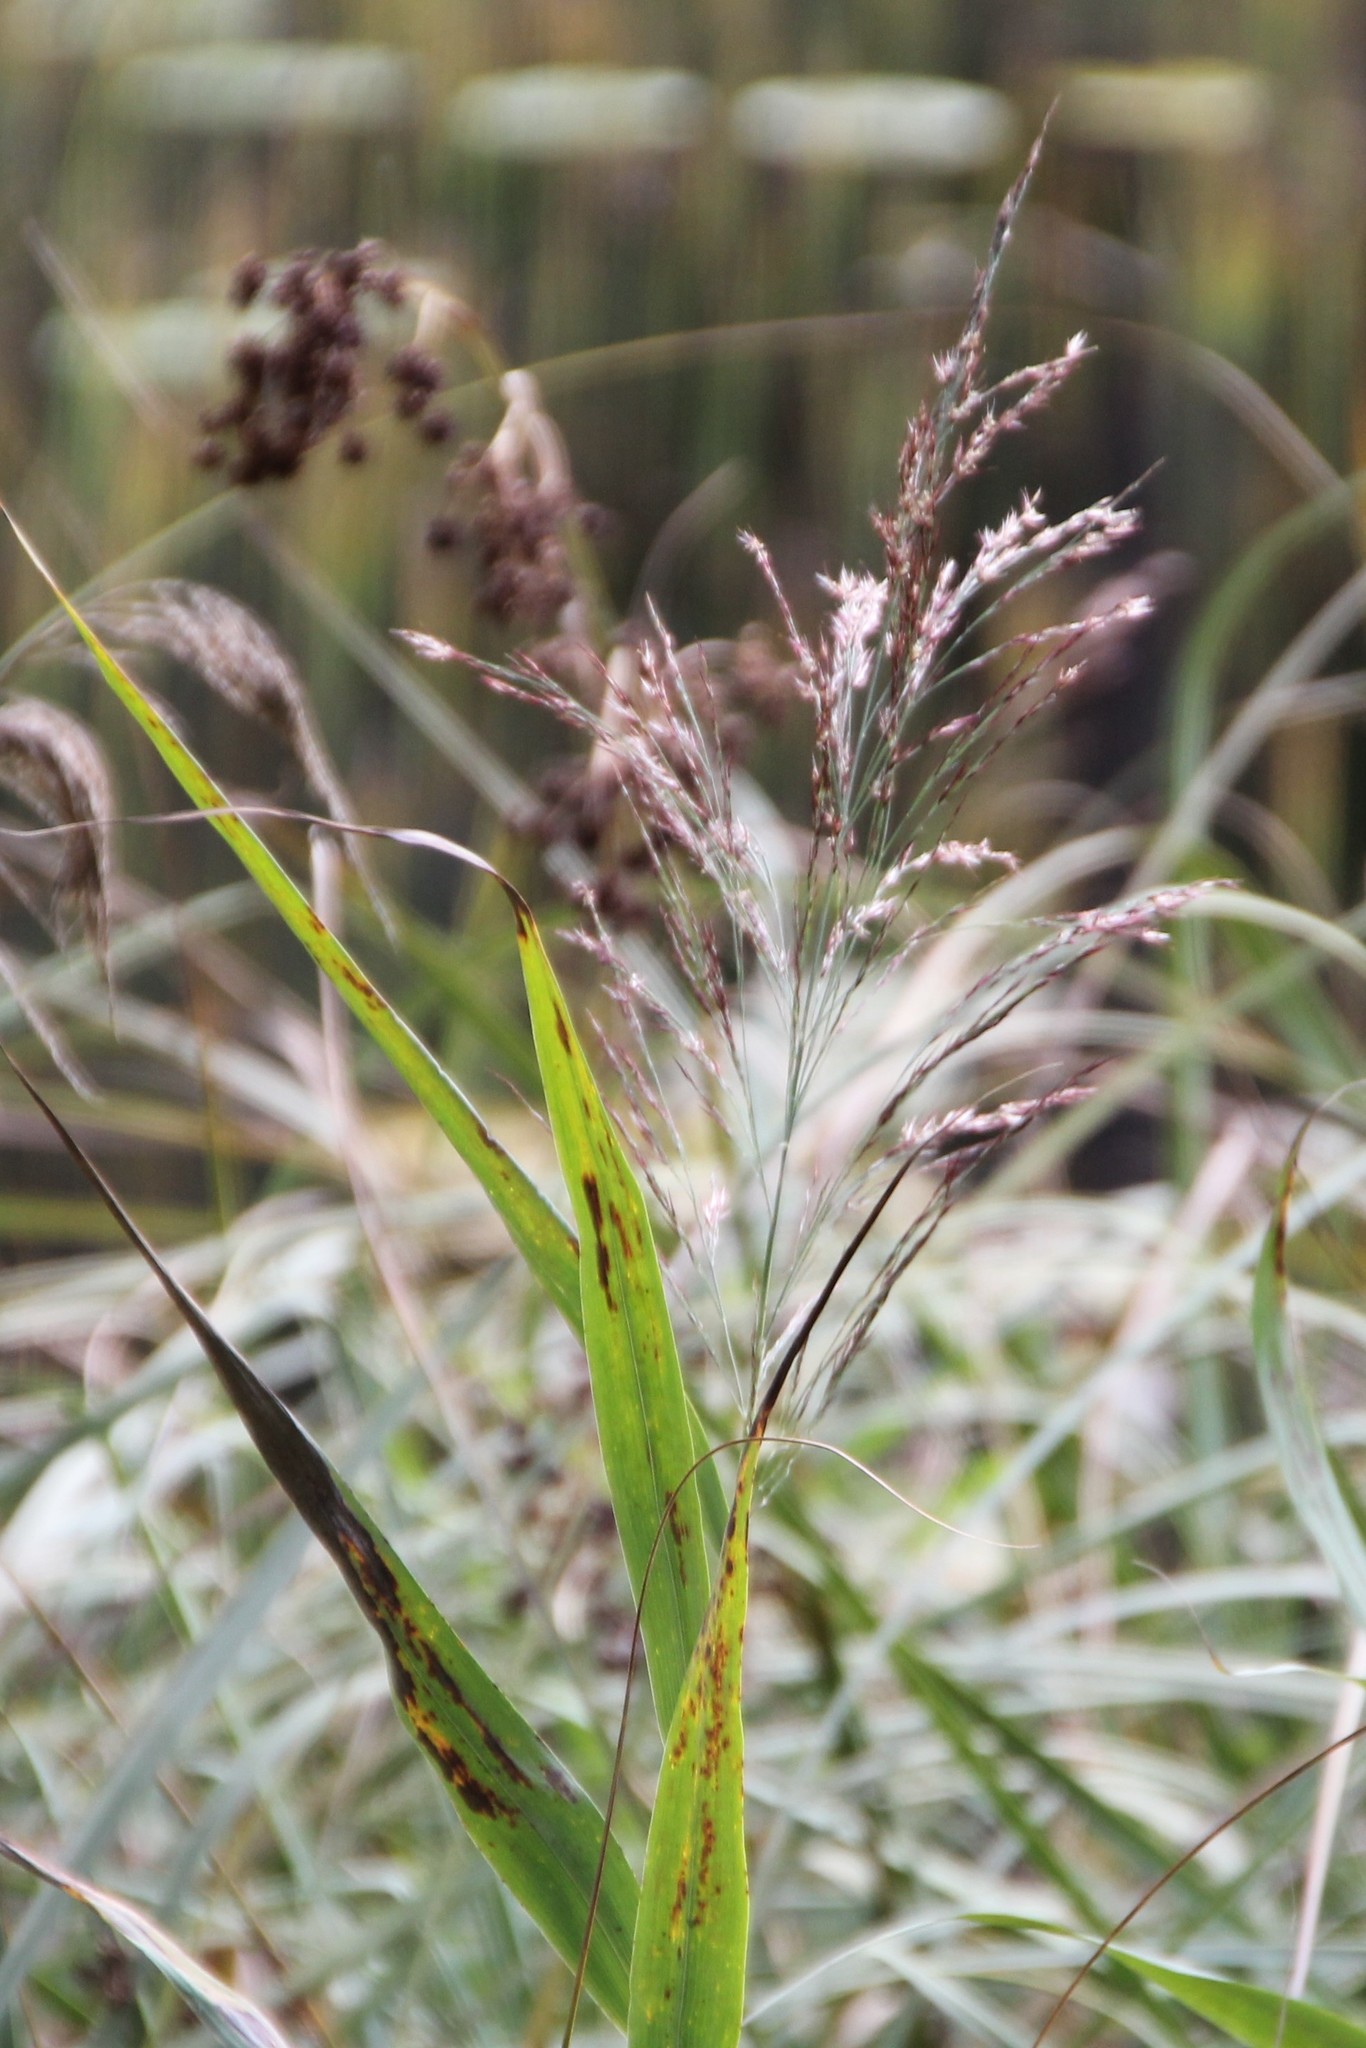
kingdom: Plantae
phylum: Tracheophyta
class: Liliopsida
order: Poales
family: Poaceae
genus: Phragmites
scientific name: Phragmites australis
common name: Common reed
